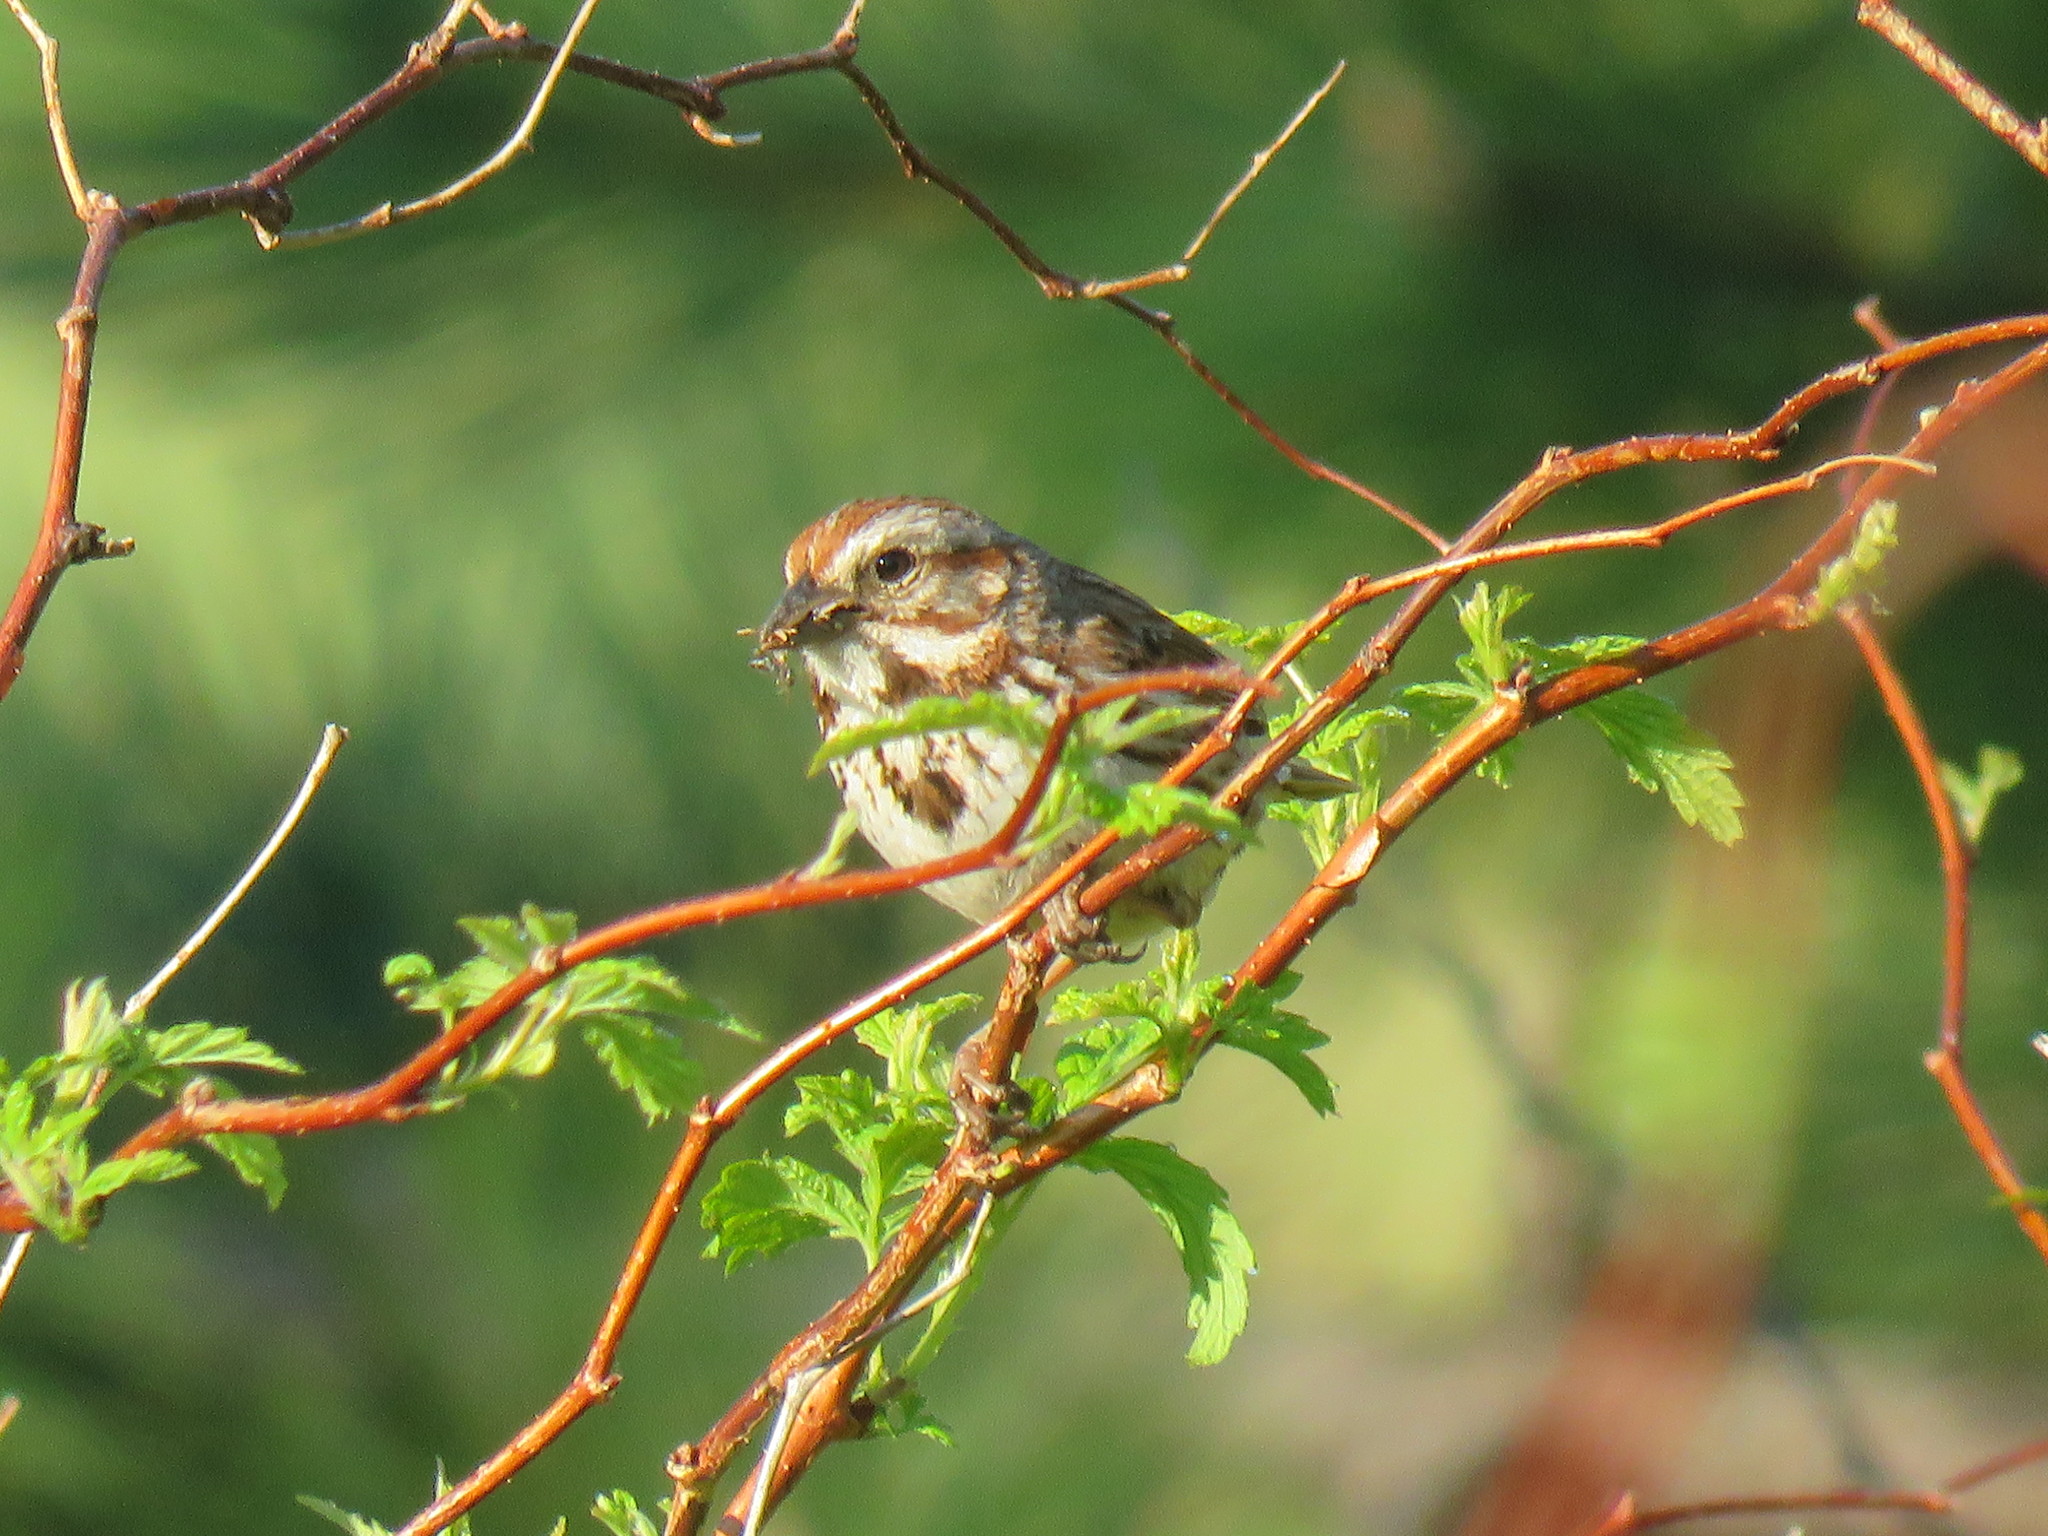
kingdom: Animalia
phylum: Chordata
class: Aves
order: Passeriformes
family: Passerellidae
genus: Melospiza
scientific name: Melospiza melodia
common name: Song sparrow
